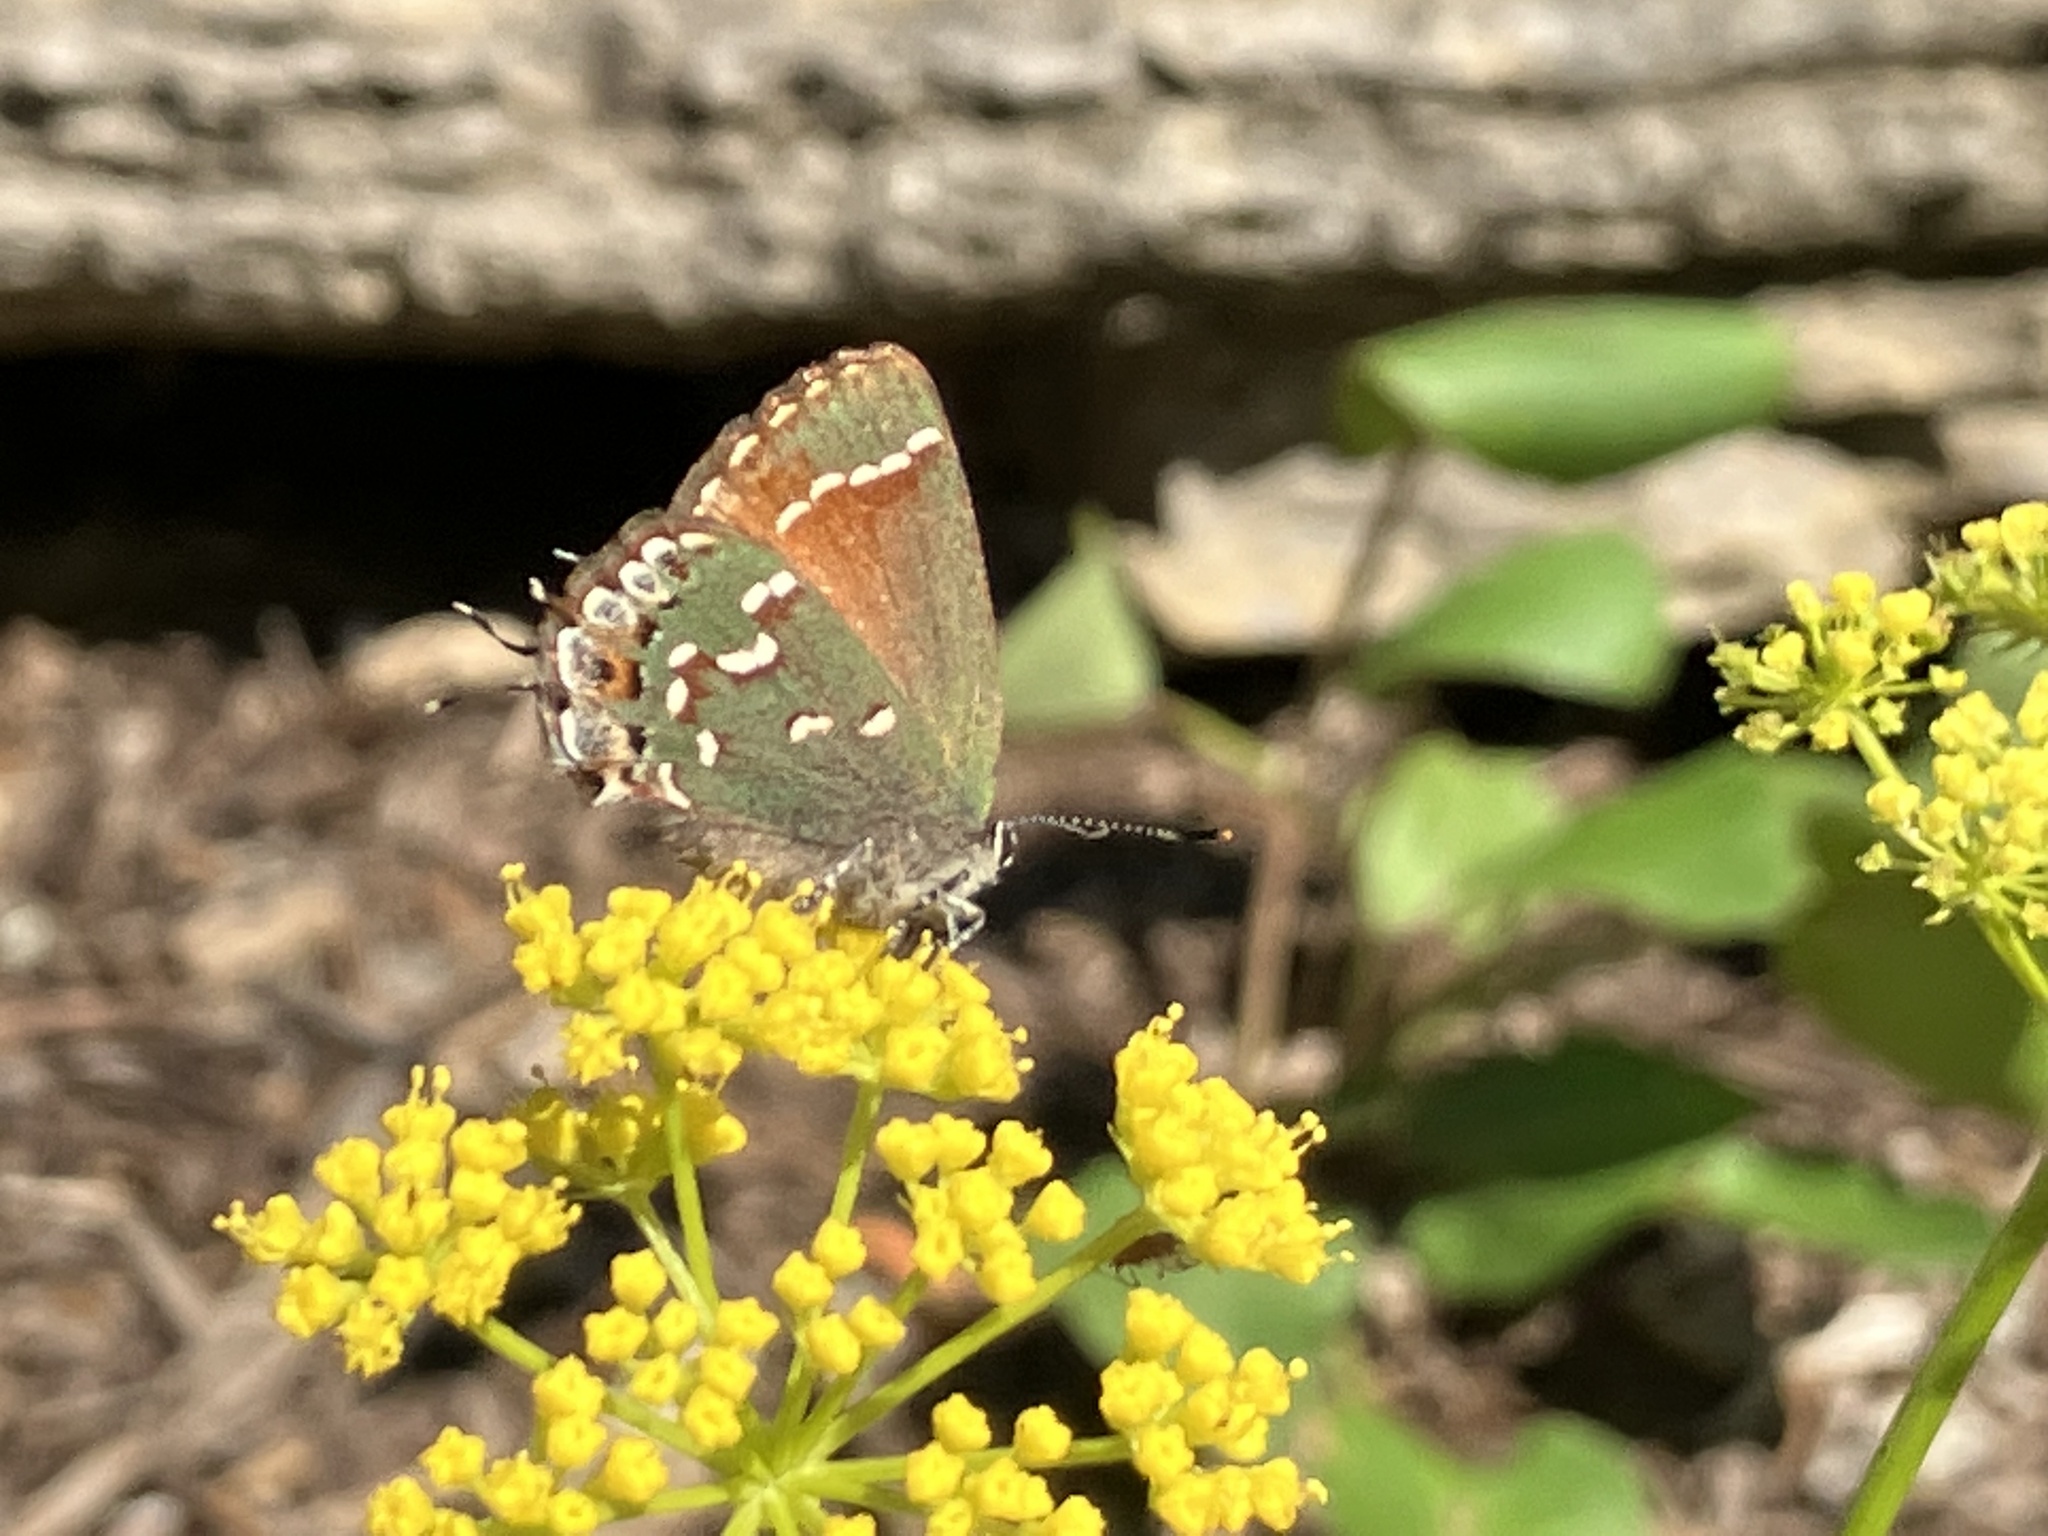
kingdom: Animalia
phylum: Arthropoda
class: Insecta
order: Lepidoptera
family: Lycaenidae
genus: Mitoura
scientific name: Mitoura gryneus
